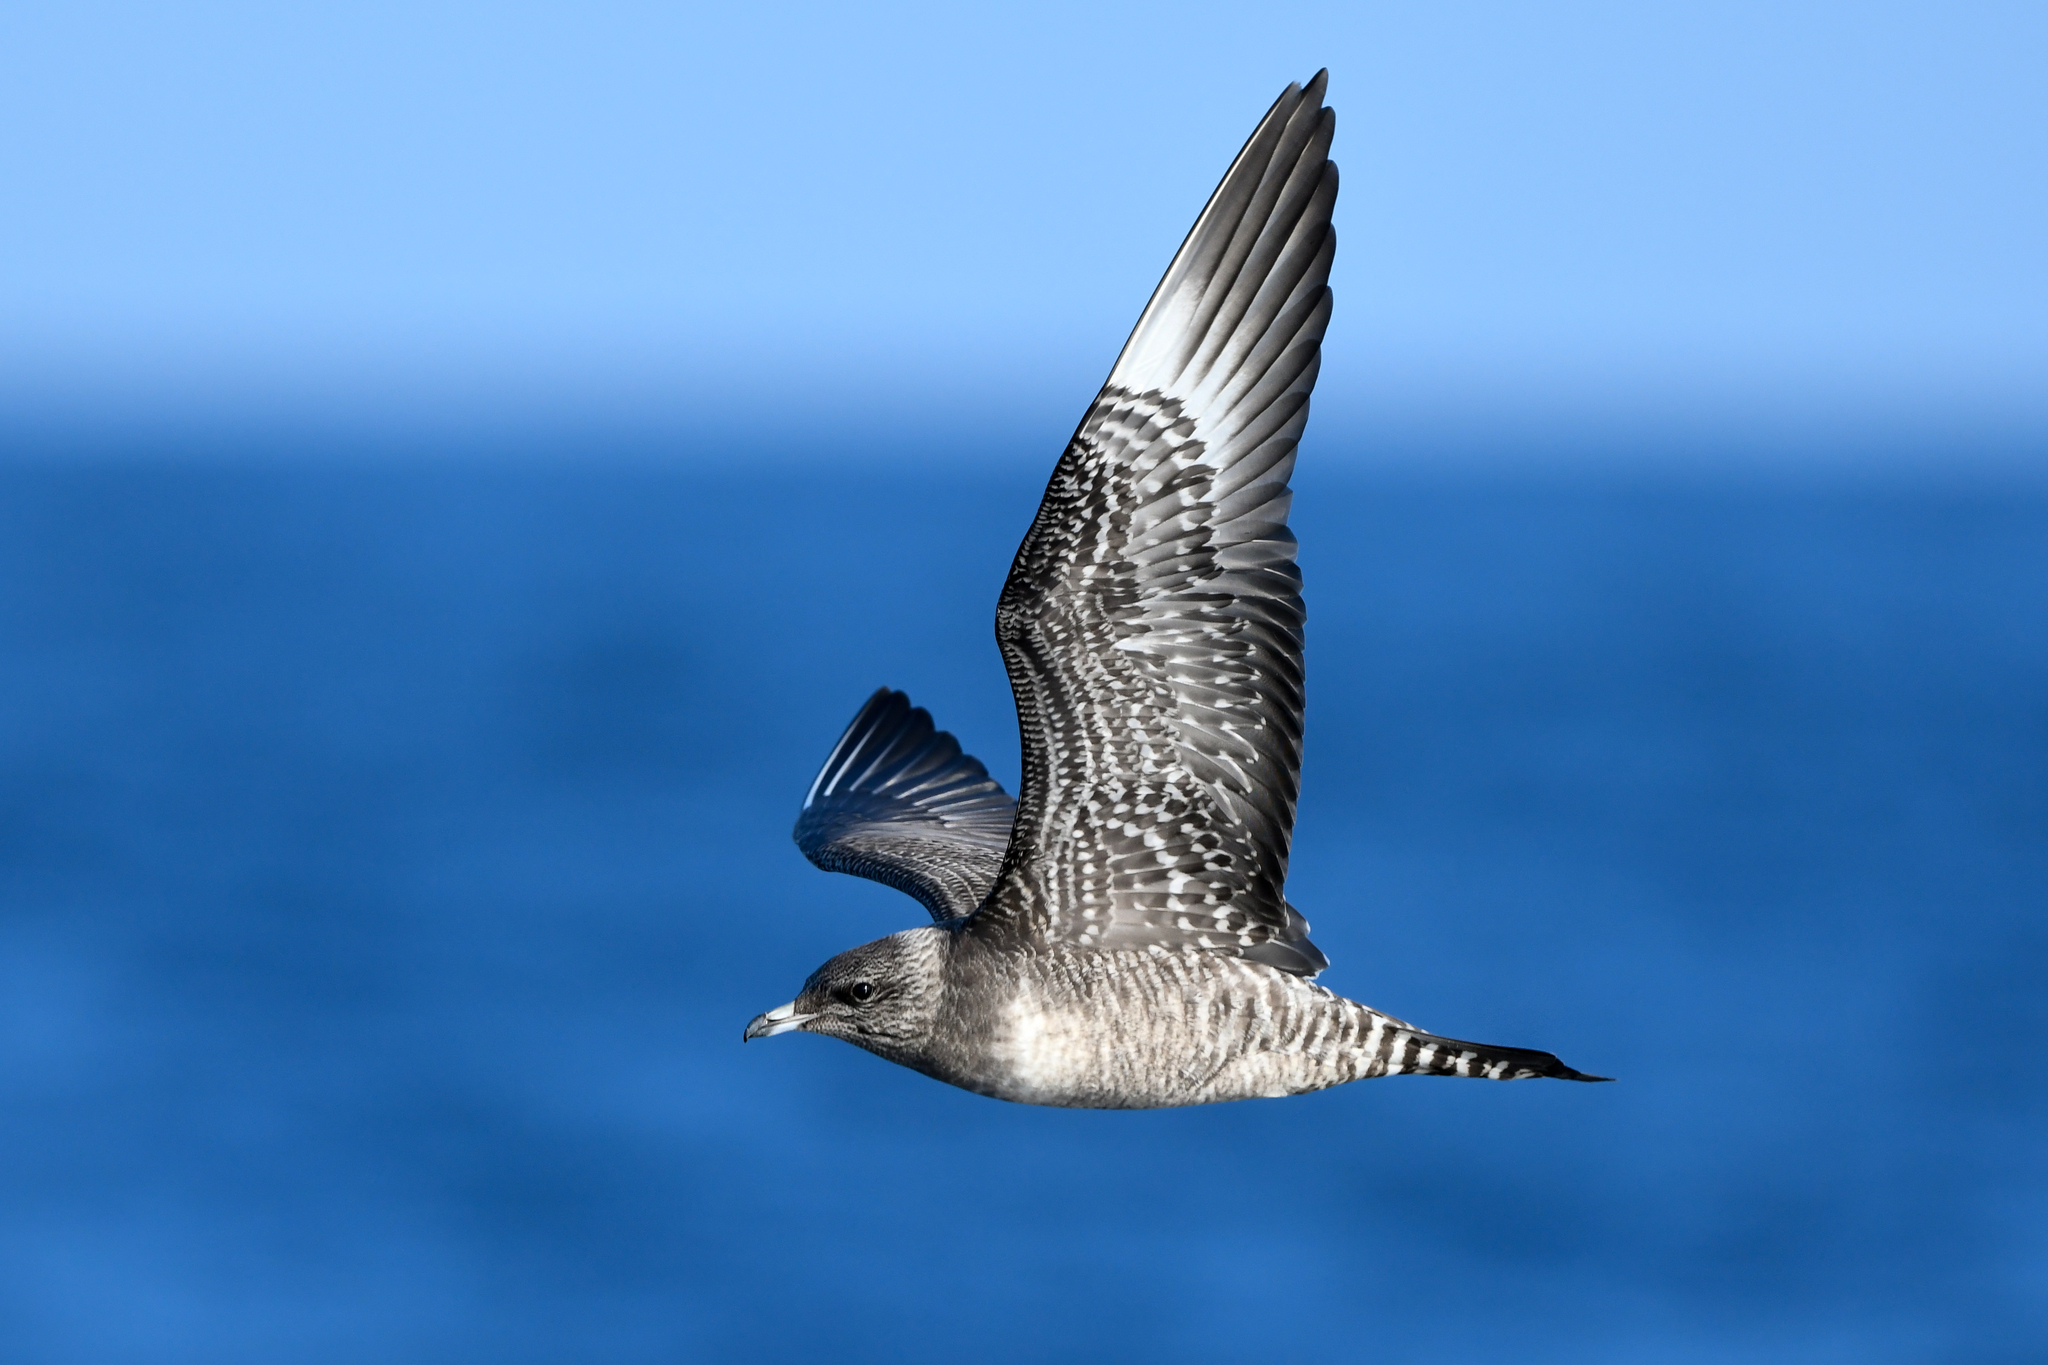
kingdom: Animalia
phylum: Chordata
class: Aves
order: Charadriiformes
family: Stercorariidae
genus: Stercorarius
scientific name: Stercorarius longicaudus
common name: Long-tailed jaeger
